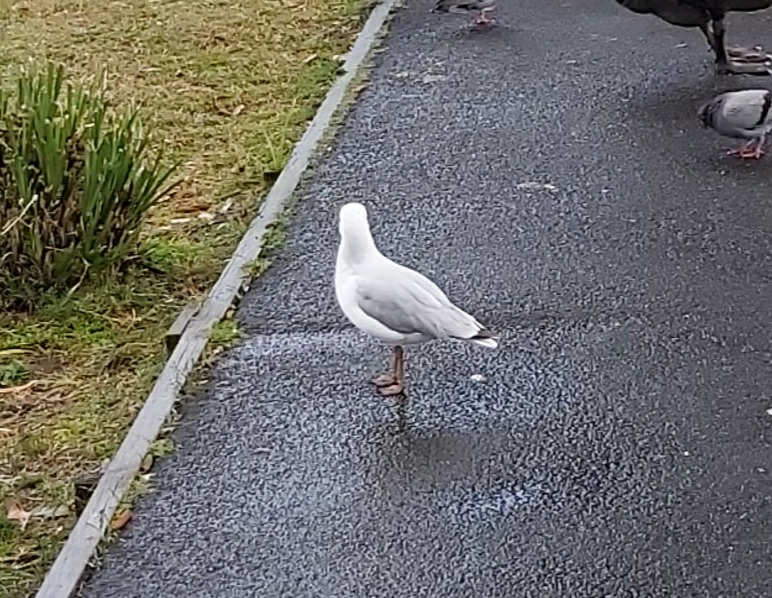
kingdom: Animalia
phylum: Chordata
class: Aves
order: Charadriiformes
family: Laridae
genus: Chroicocephalus
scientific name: Chroicocephalus novaehollandiae
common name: Silver gull
